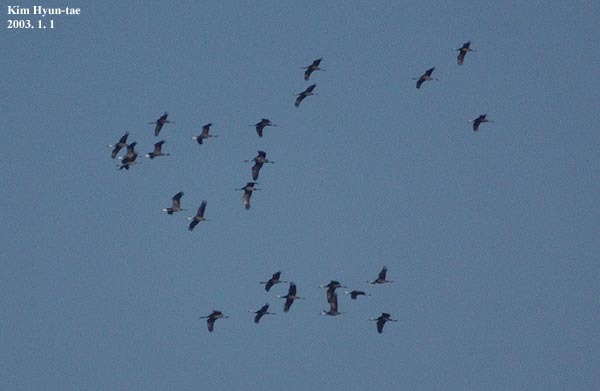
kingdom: Animalia
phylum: Chordata
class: Aves
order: Gruiformes
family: Gruidae
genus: Grus
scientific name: Grus monacha
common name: Hooded crane
